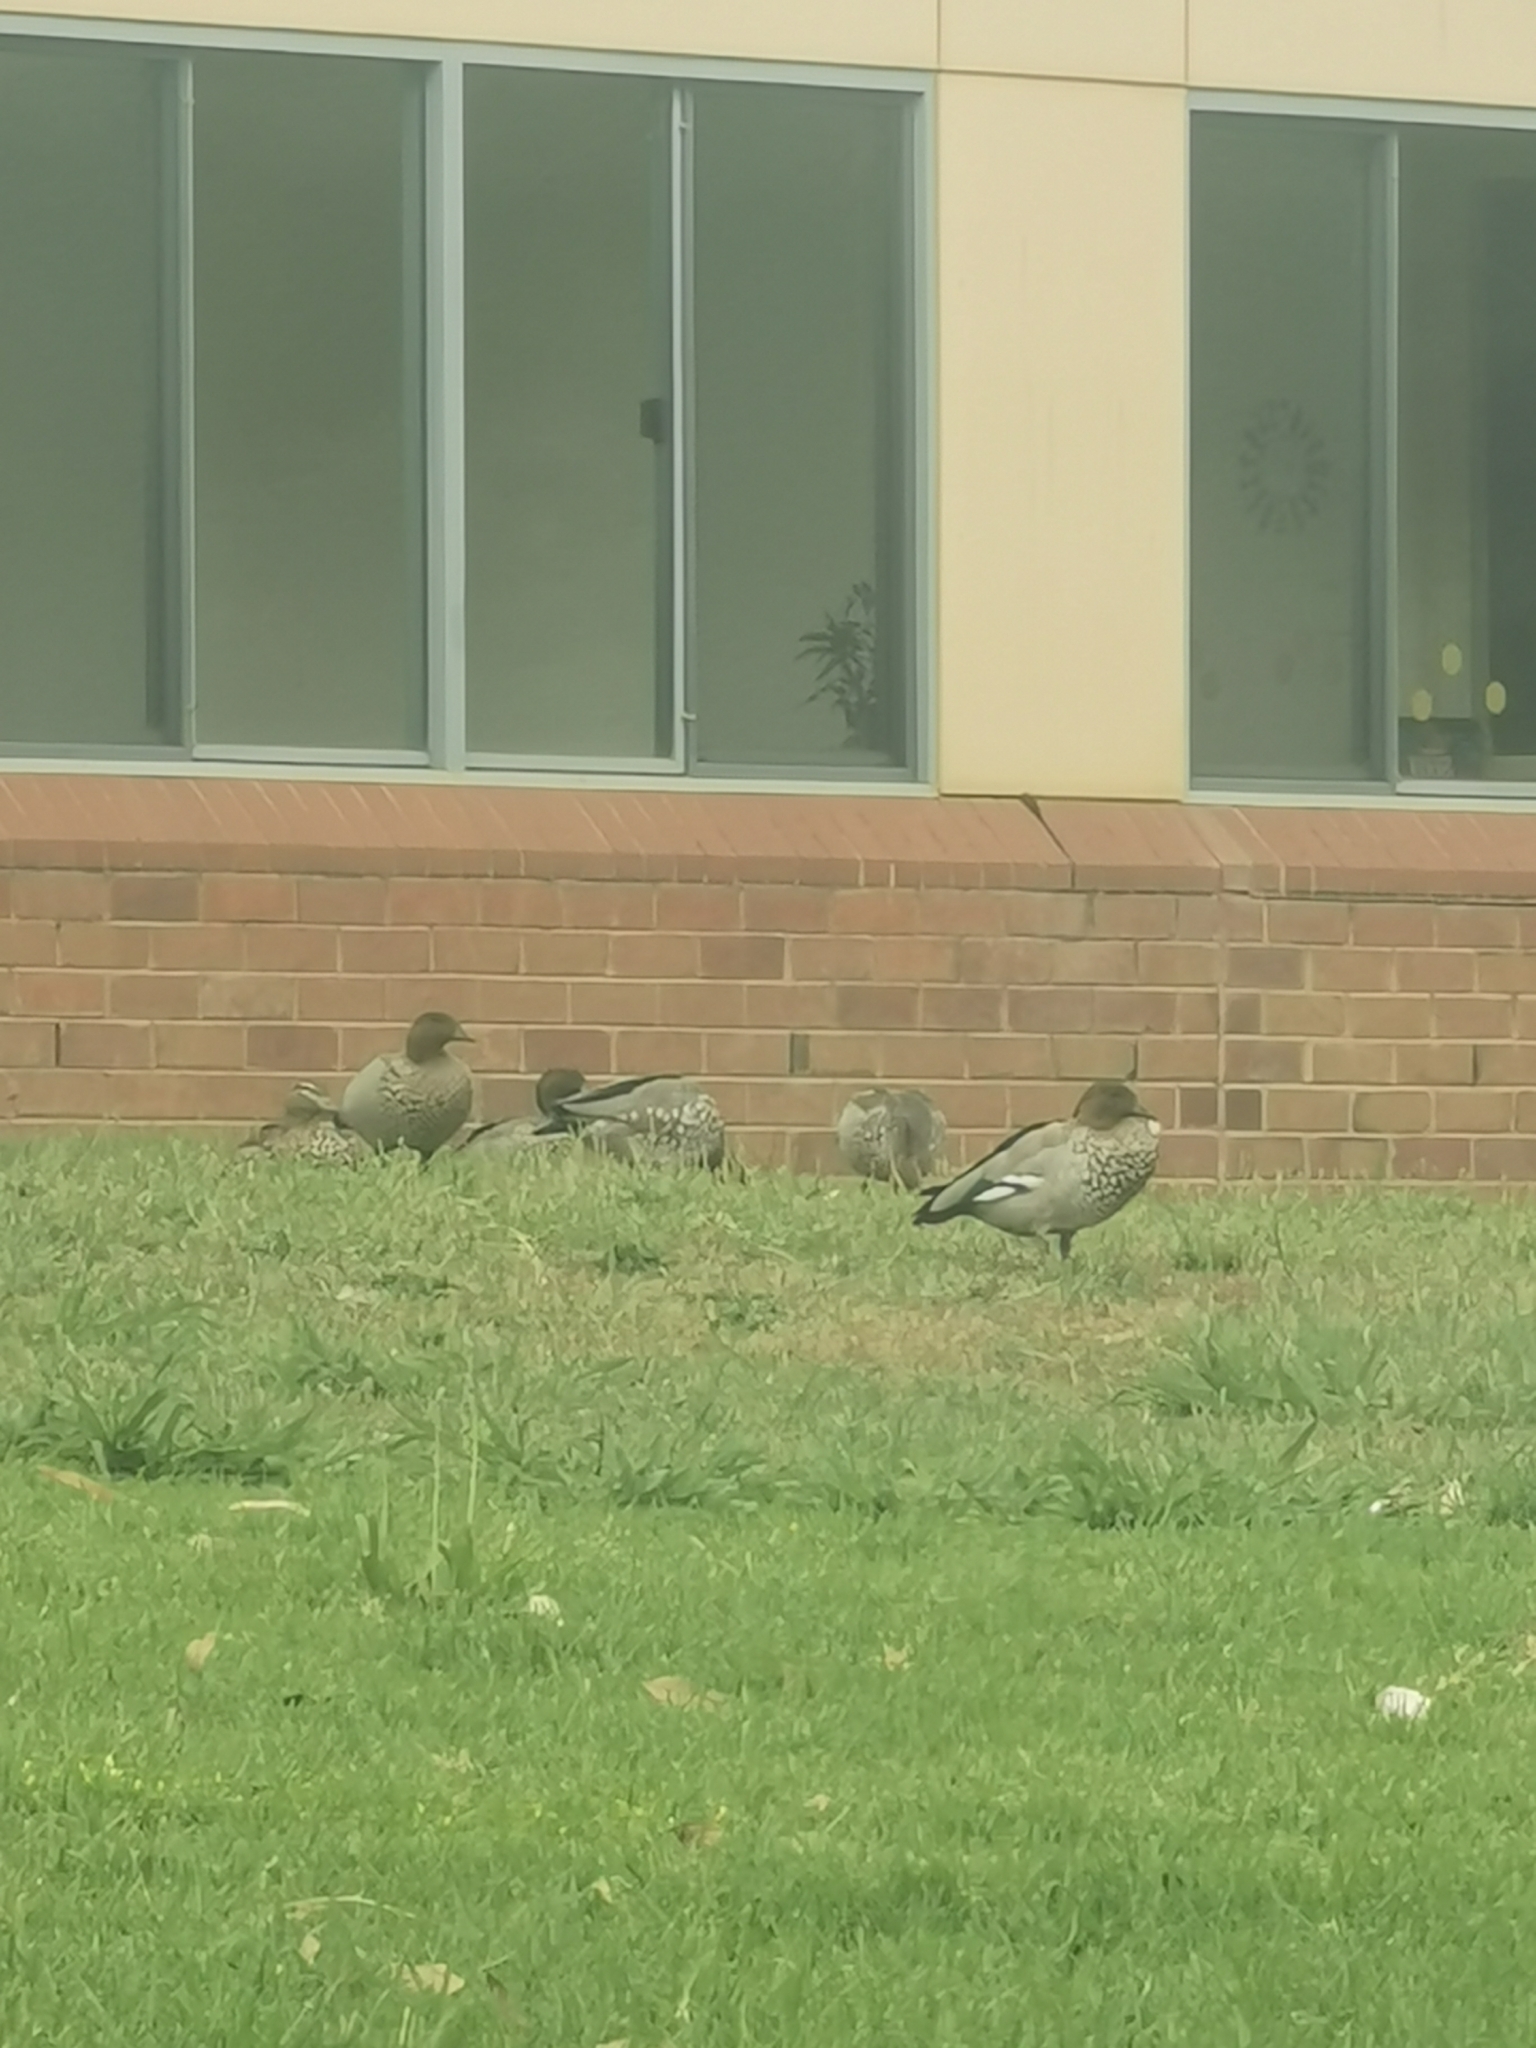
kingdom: Animalia
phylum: Chordata
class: Aves
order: Anseriformes
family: Anatidae
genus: Chenonetta
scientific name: Chenonetta jubata
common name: Maned duck
